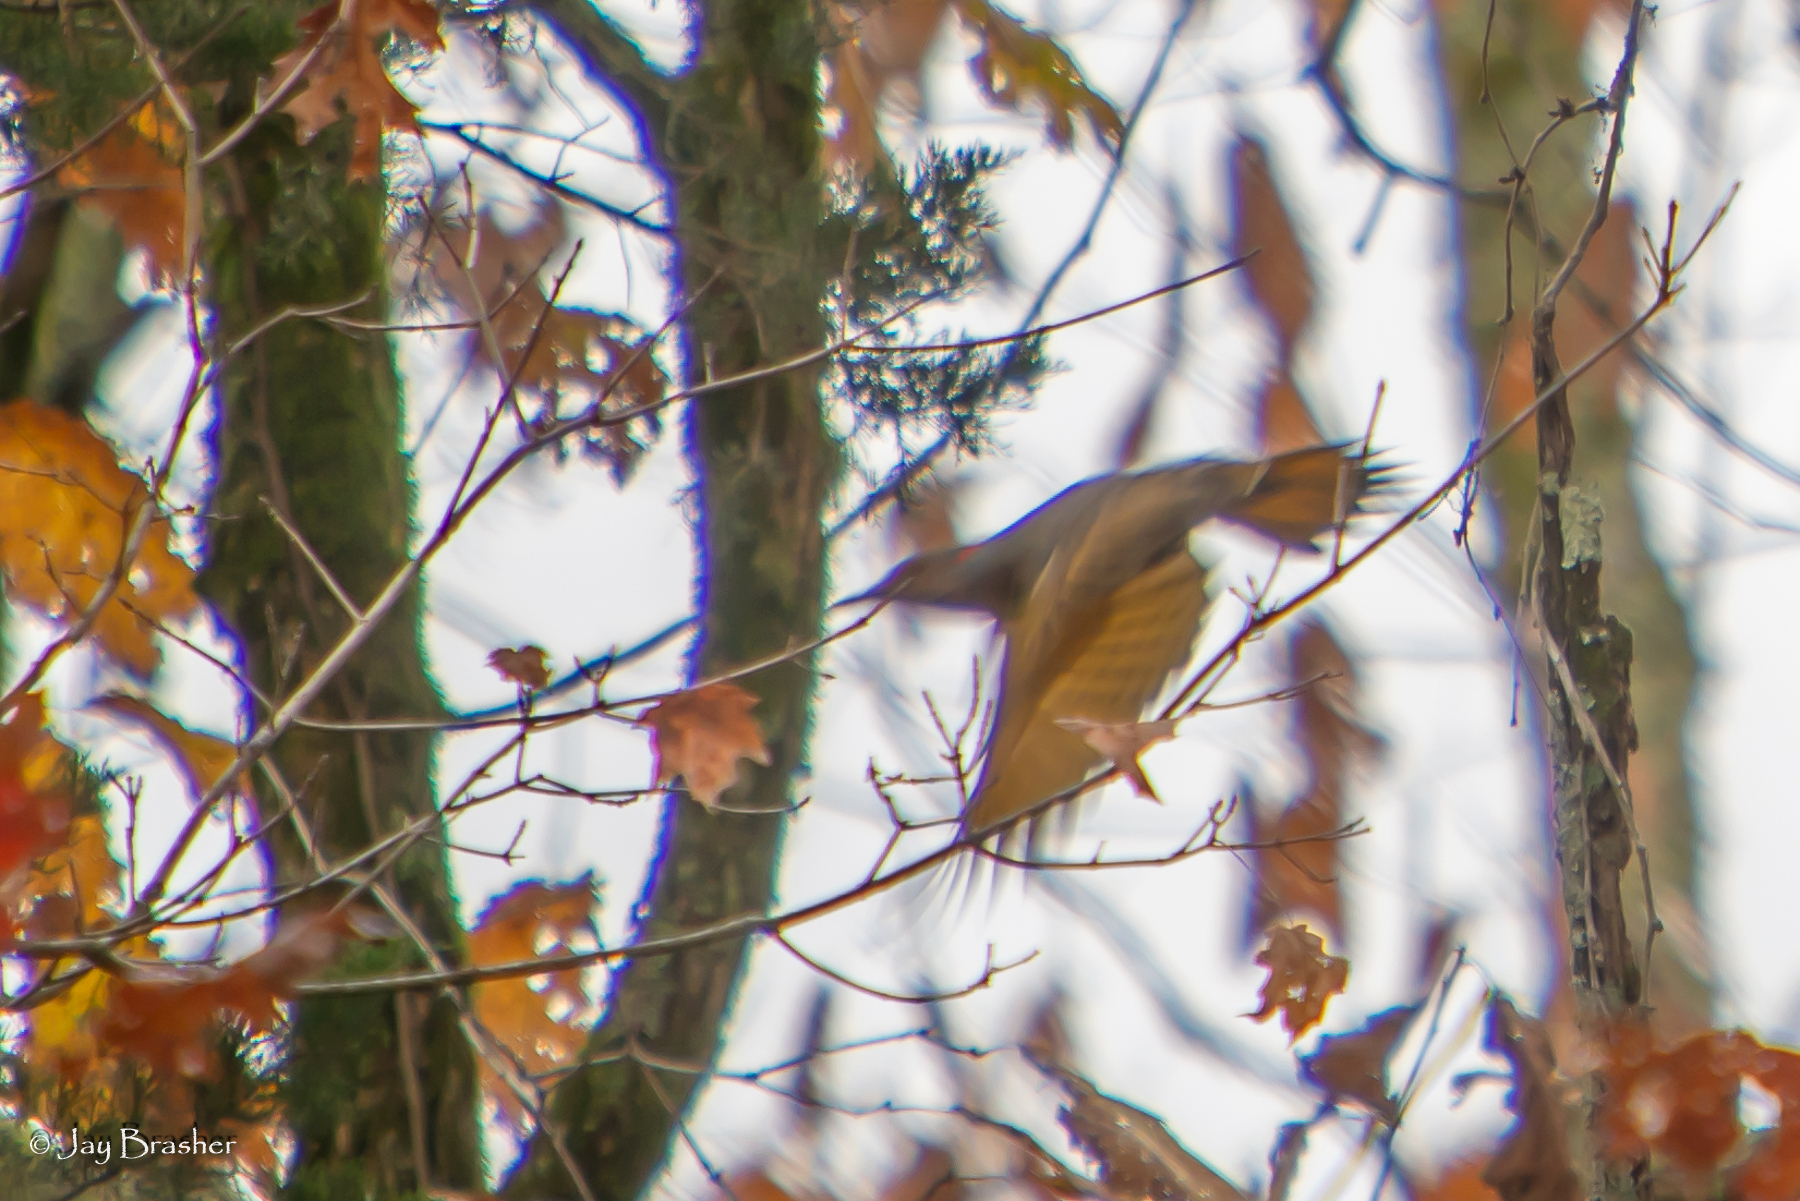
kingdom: Animalia
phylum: Chordata
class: Aves
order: Piciformes
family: Picidae
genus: Colaptes
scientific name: Colaptes auratus
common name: Northern flicker
